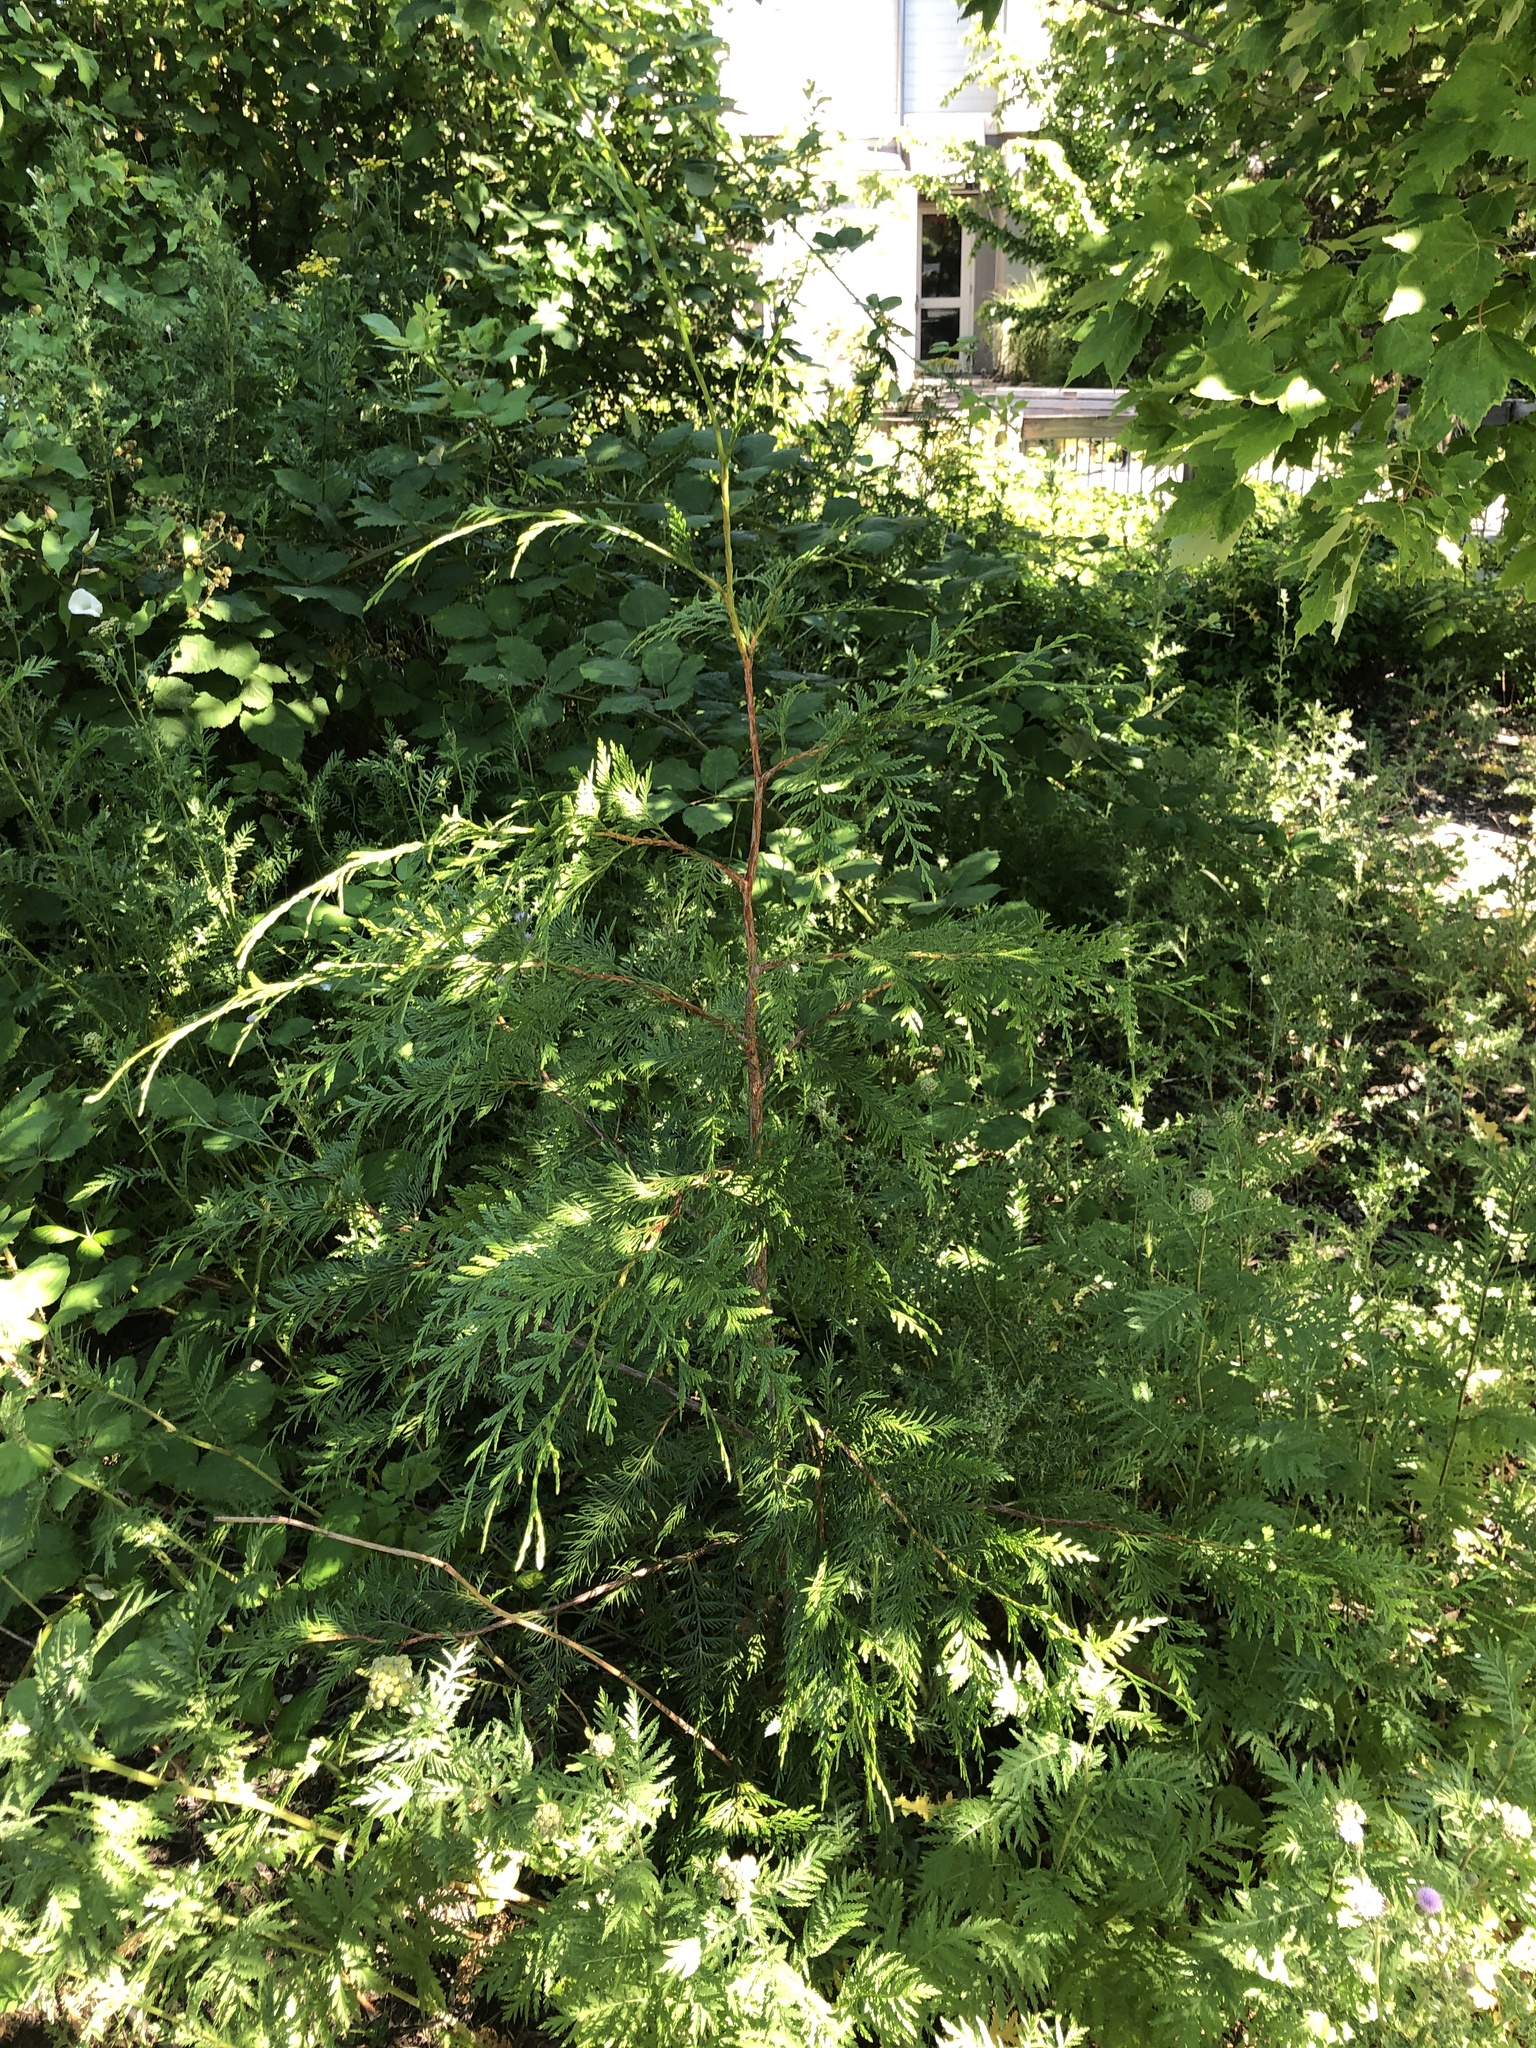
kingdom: Plantae
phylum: Tracheophyta
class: Pinopsida
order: Pinales
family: Cupressaceae
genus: Thuja
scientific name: Thuja plicata
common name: Western red-cedar
